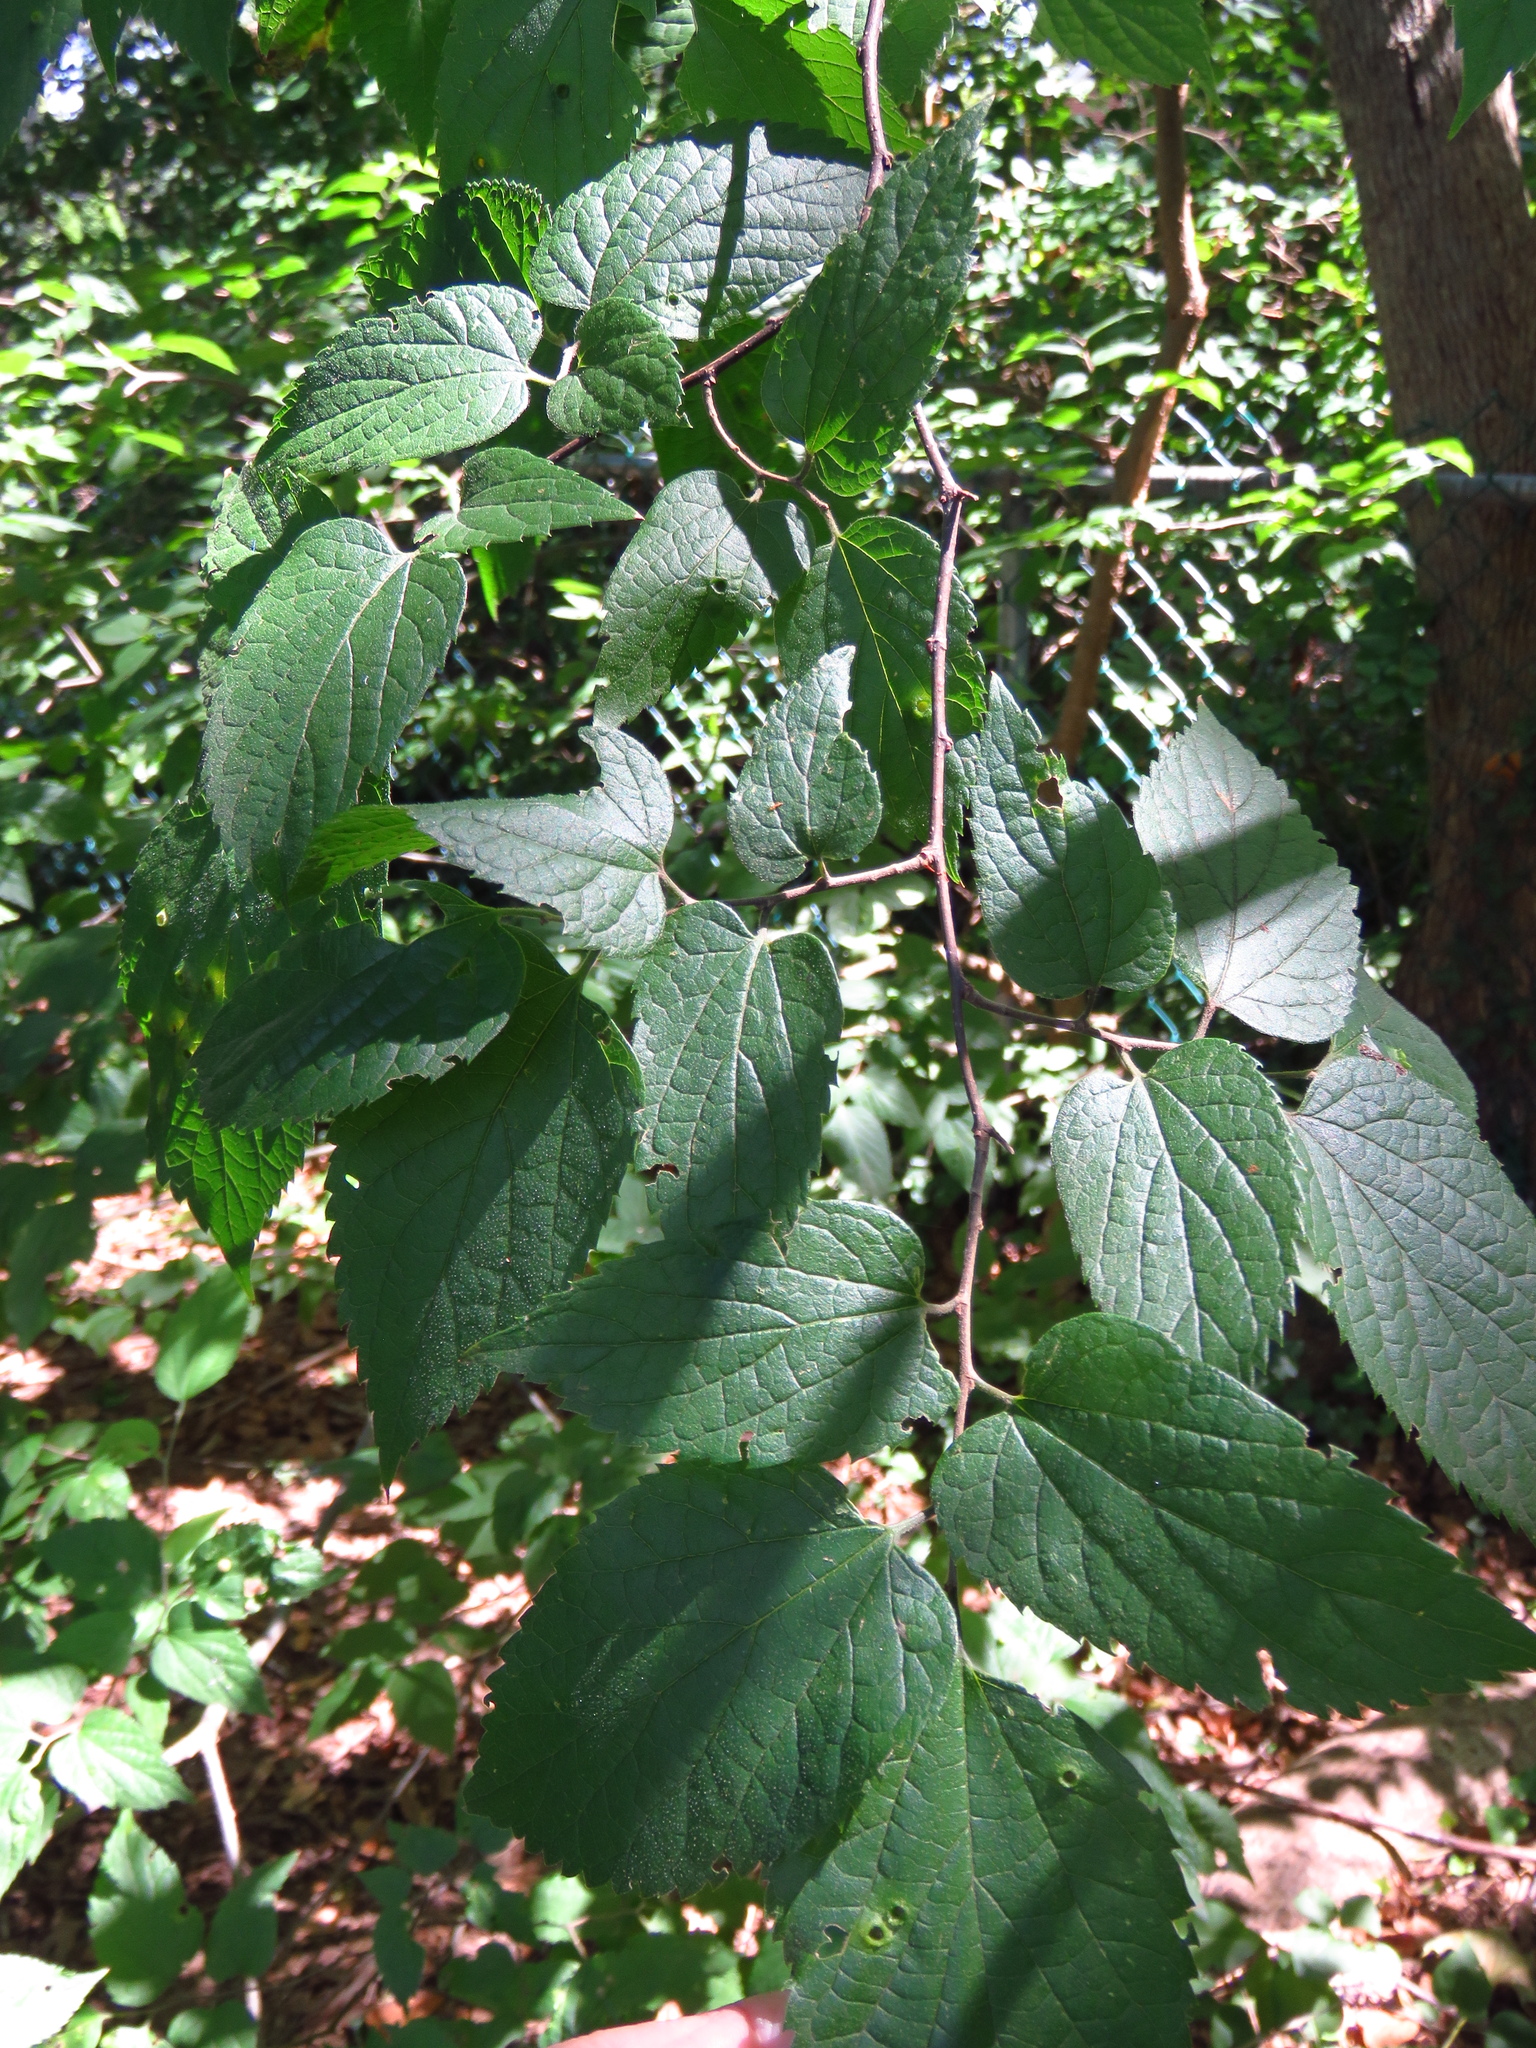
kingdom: Plantae
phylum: Tracheophyta
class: Magnoliopsida
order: Rosales
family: Cannabaceae
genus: Celtis
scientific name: Celtis occidentalis
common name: Common hackberry
